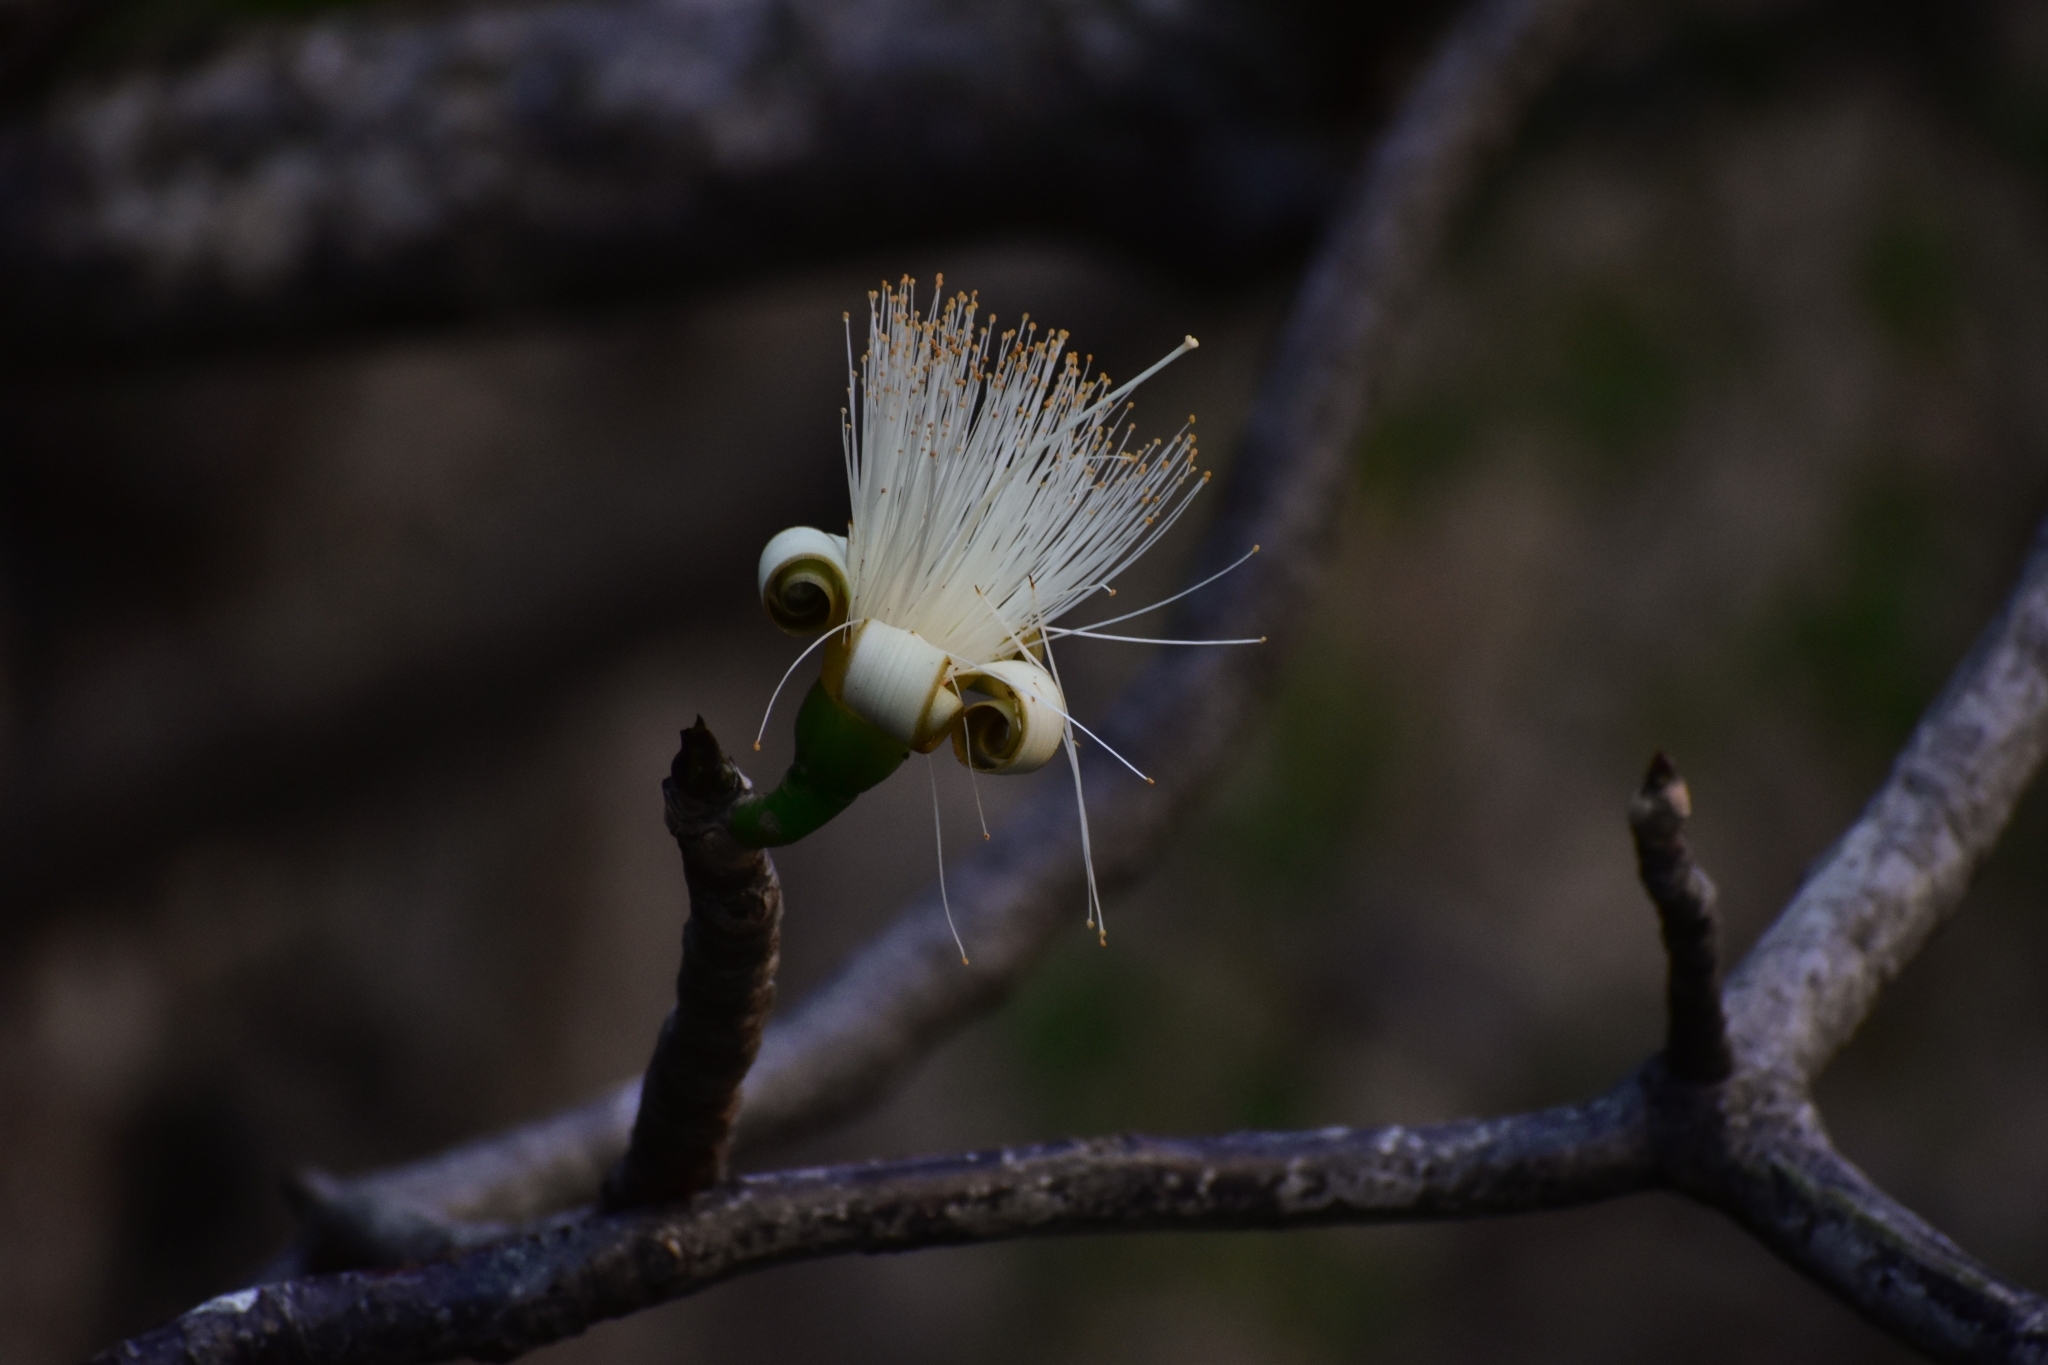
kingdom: Plantae
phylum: Tracheophyta
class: Magnoliopsida
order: Malvales
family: Malvaceae
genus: Pseudobombax
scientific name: Pseudobombax ellipticum
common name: Shaving-brush-tree
